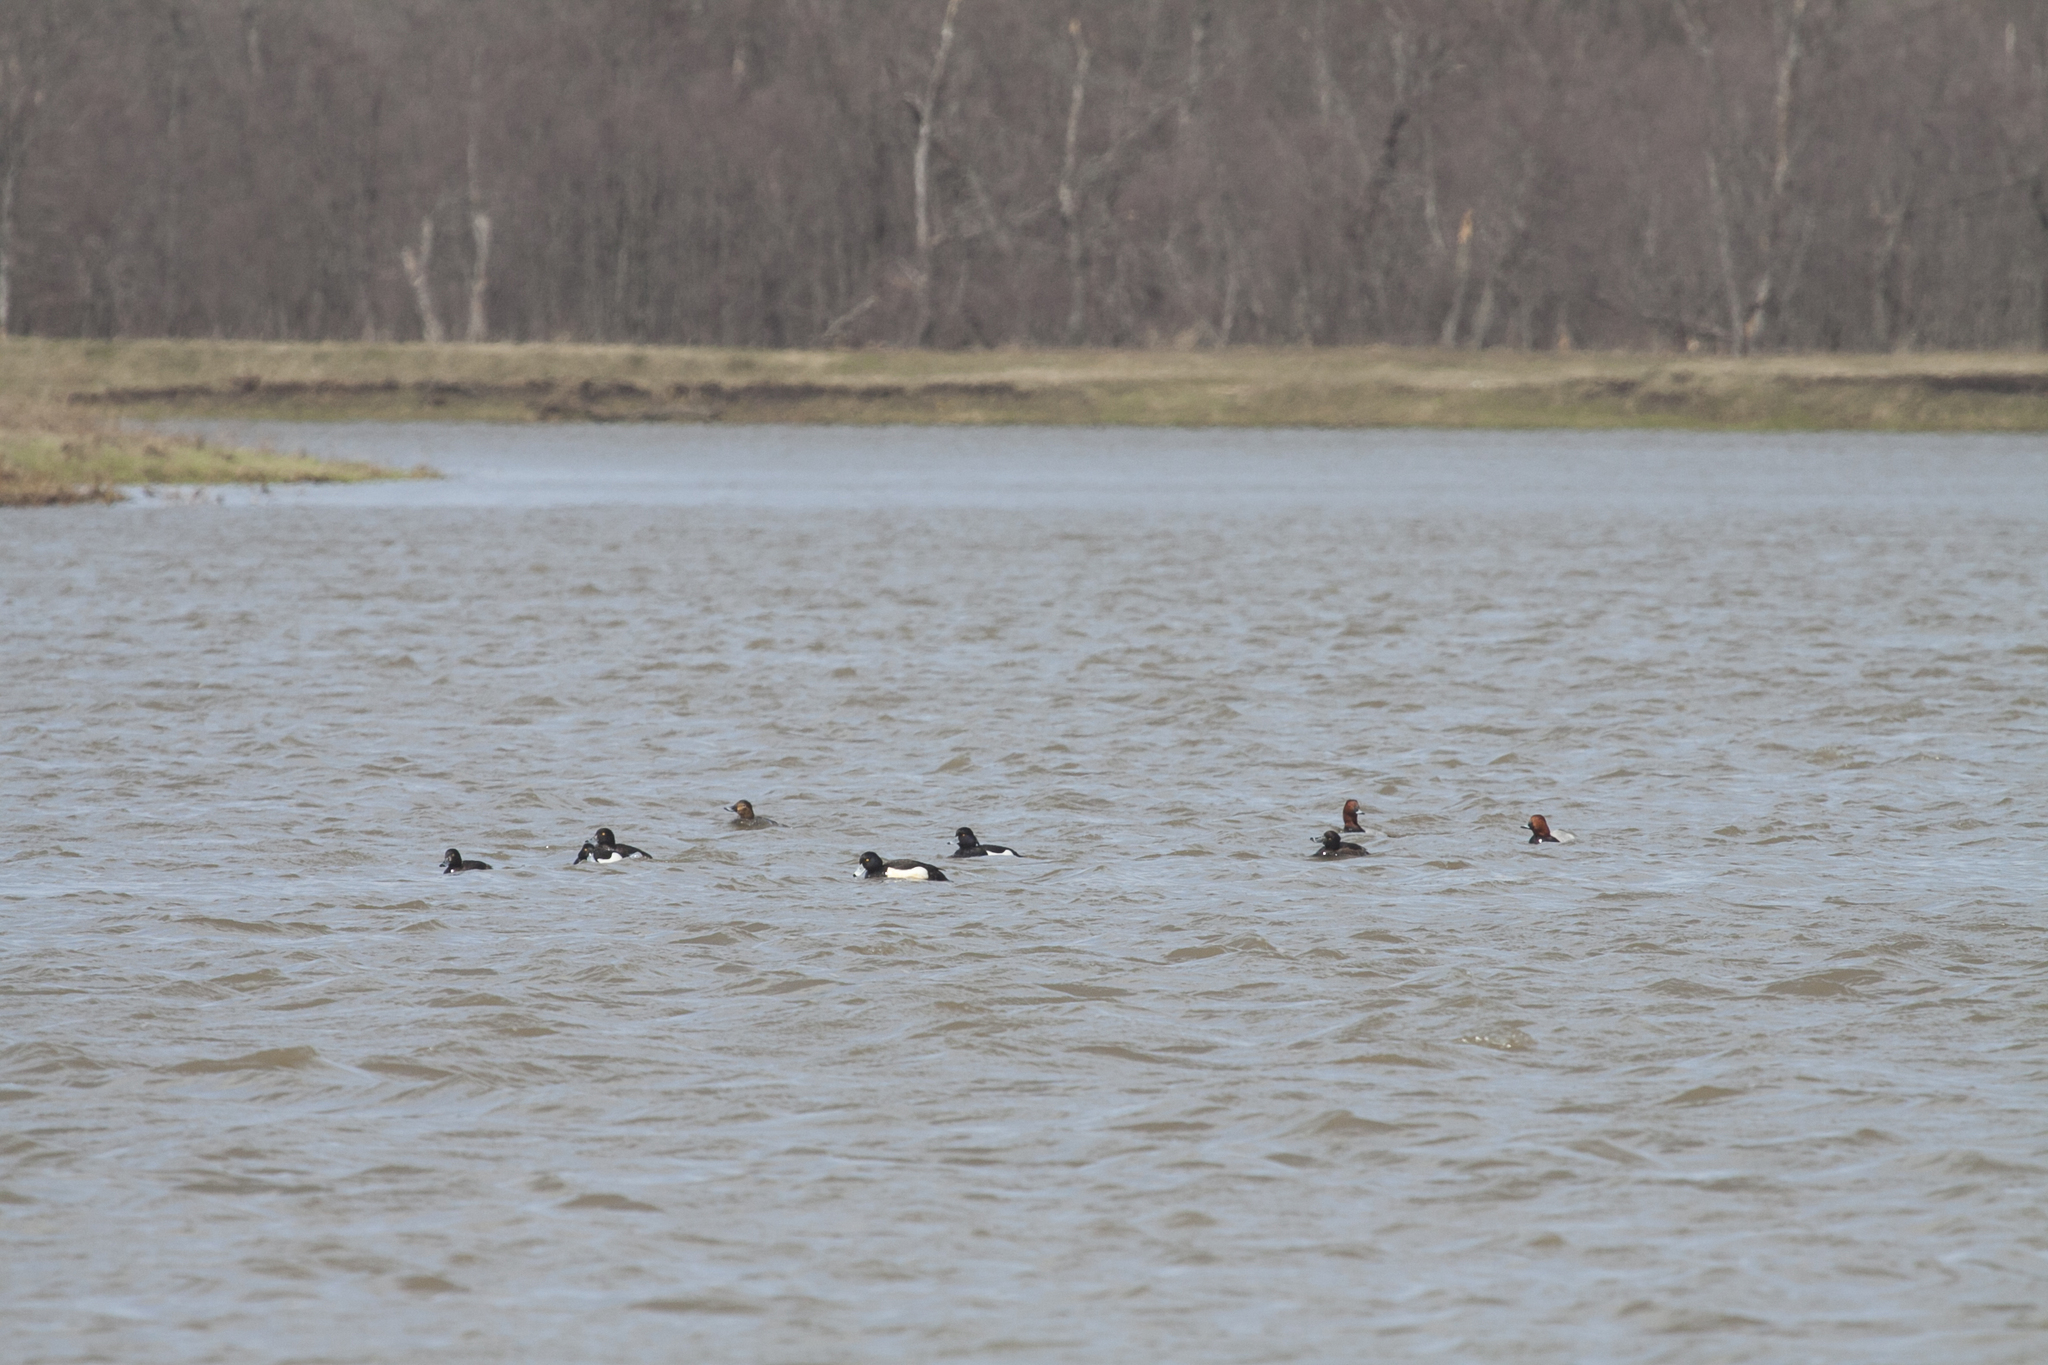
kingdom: Animalia
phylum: Chordata
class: Aves
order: Anseriformes
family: Anatidae
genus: Aythya
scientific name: Aythya fuligula
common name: Tufted duck
